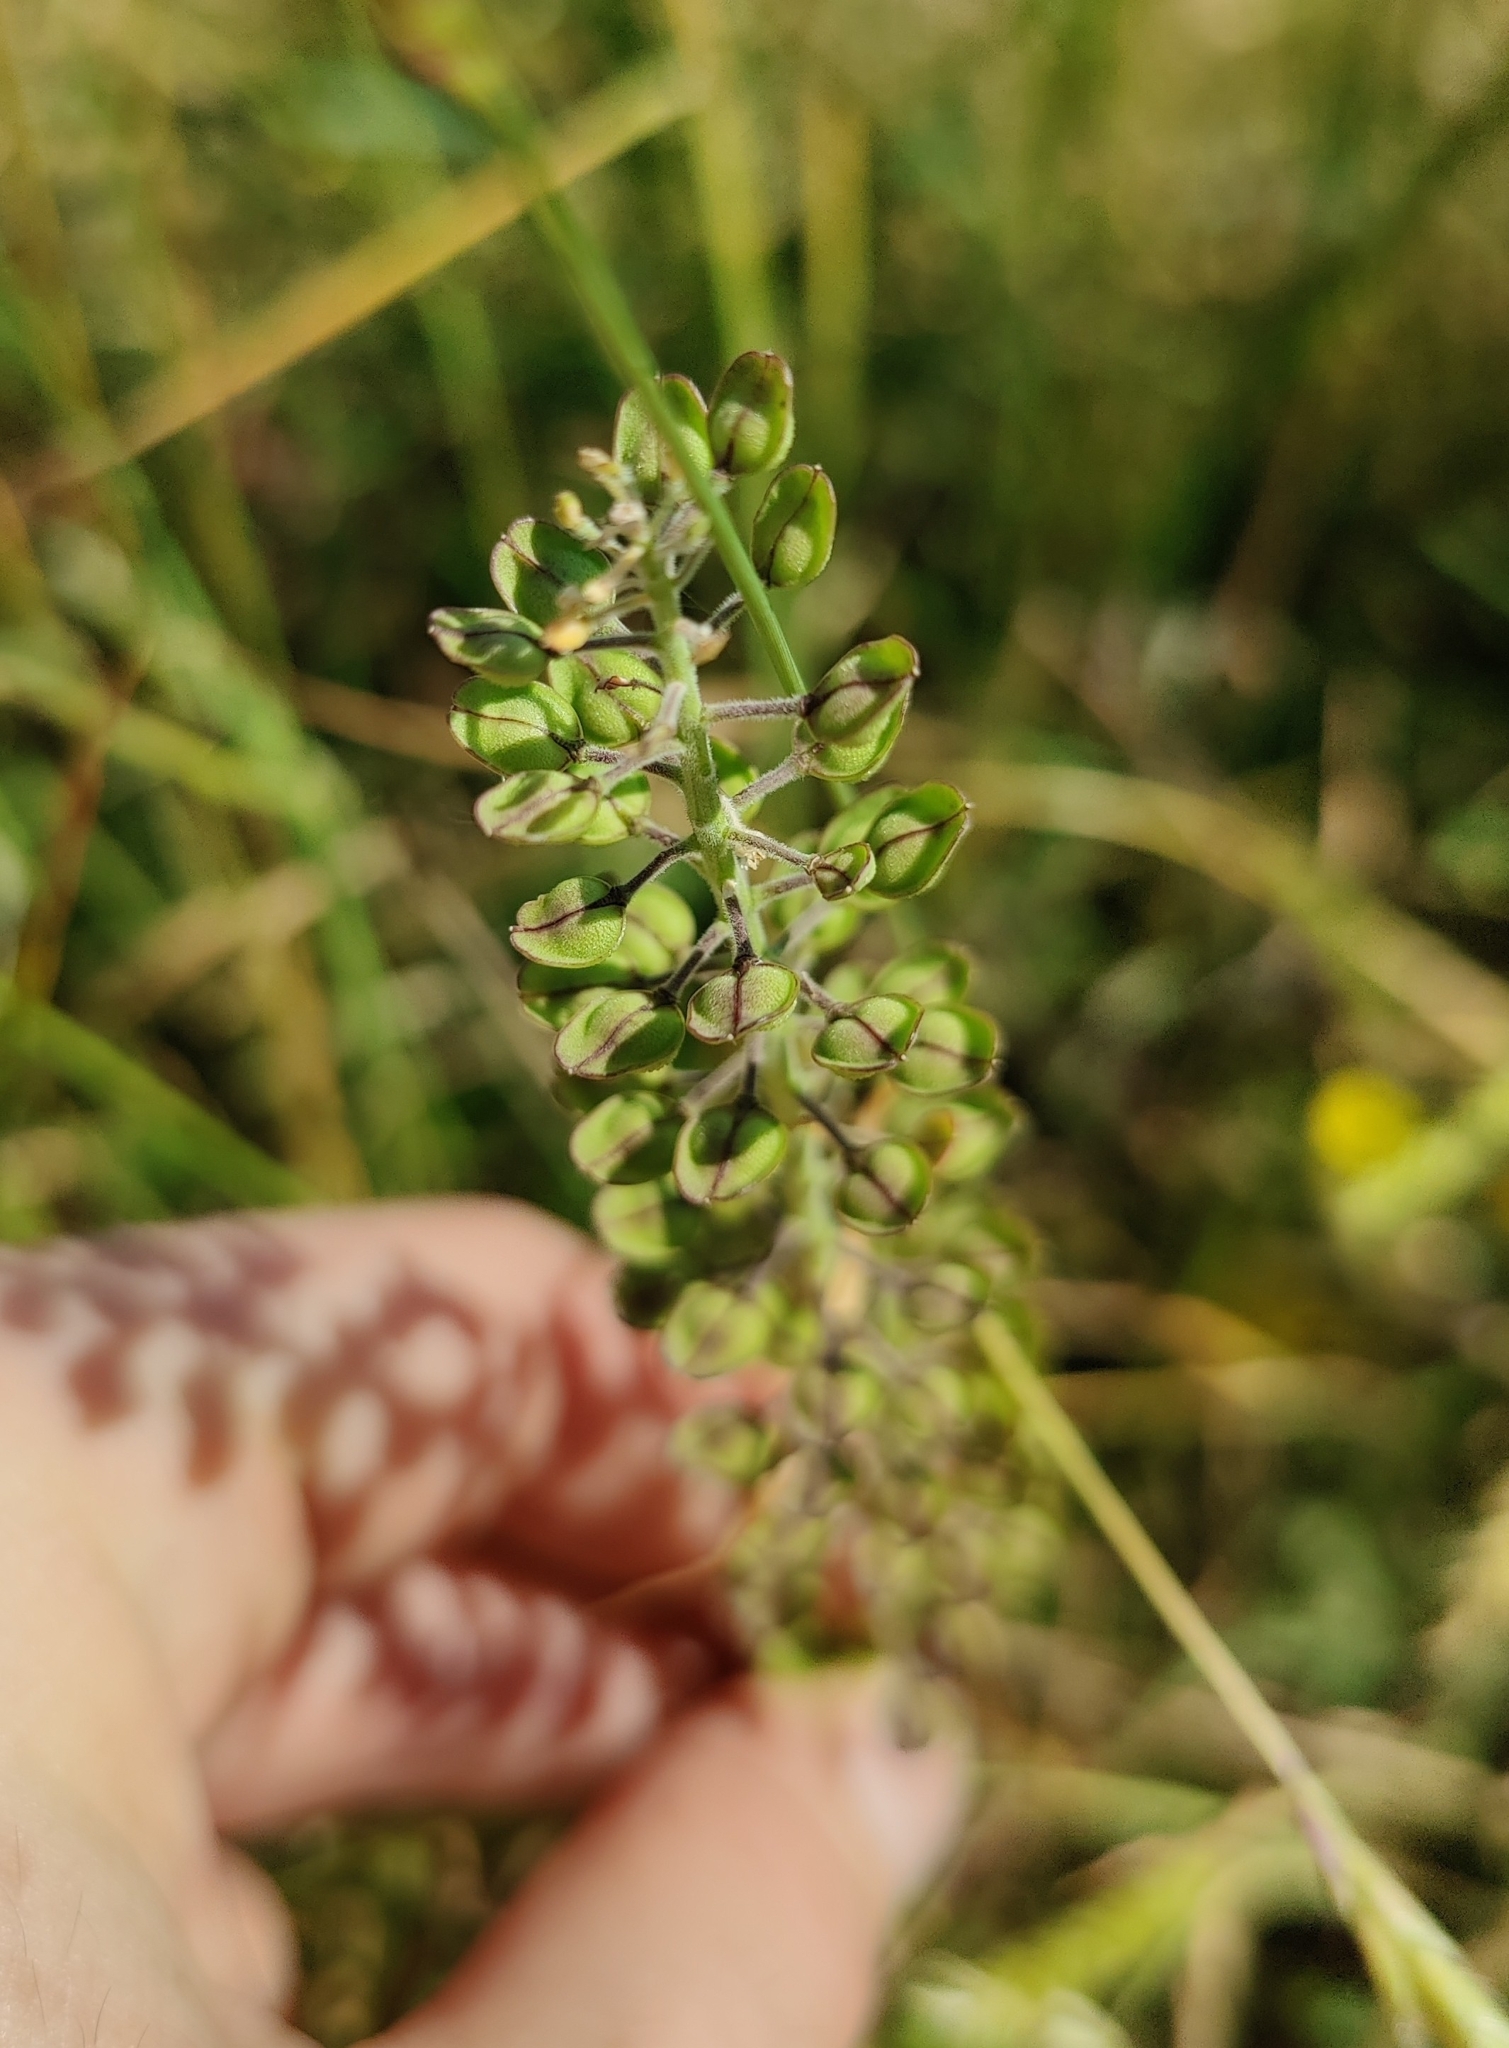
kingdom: Plantae
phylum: Tracheophyta
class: Magnoliopsida
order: Brassicales
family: Brassicaceae
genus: Lepidium
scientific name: Lepidium campestre
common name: Field pepperwort
